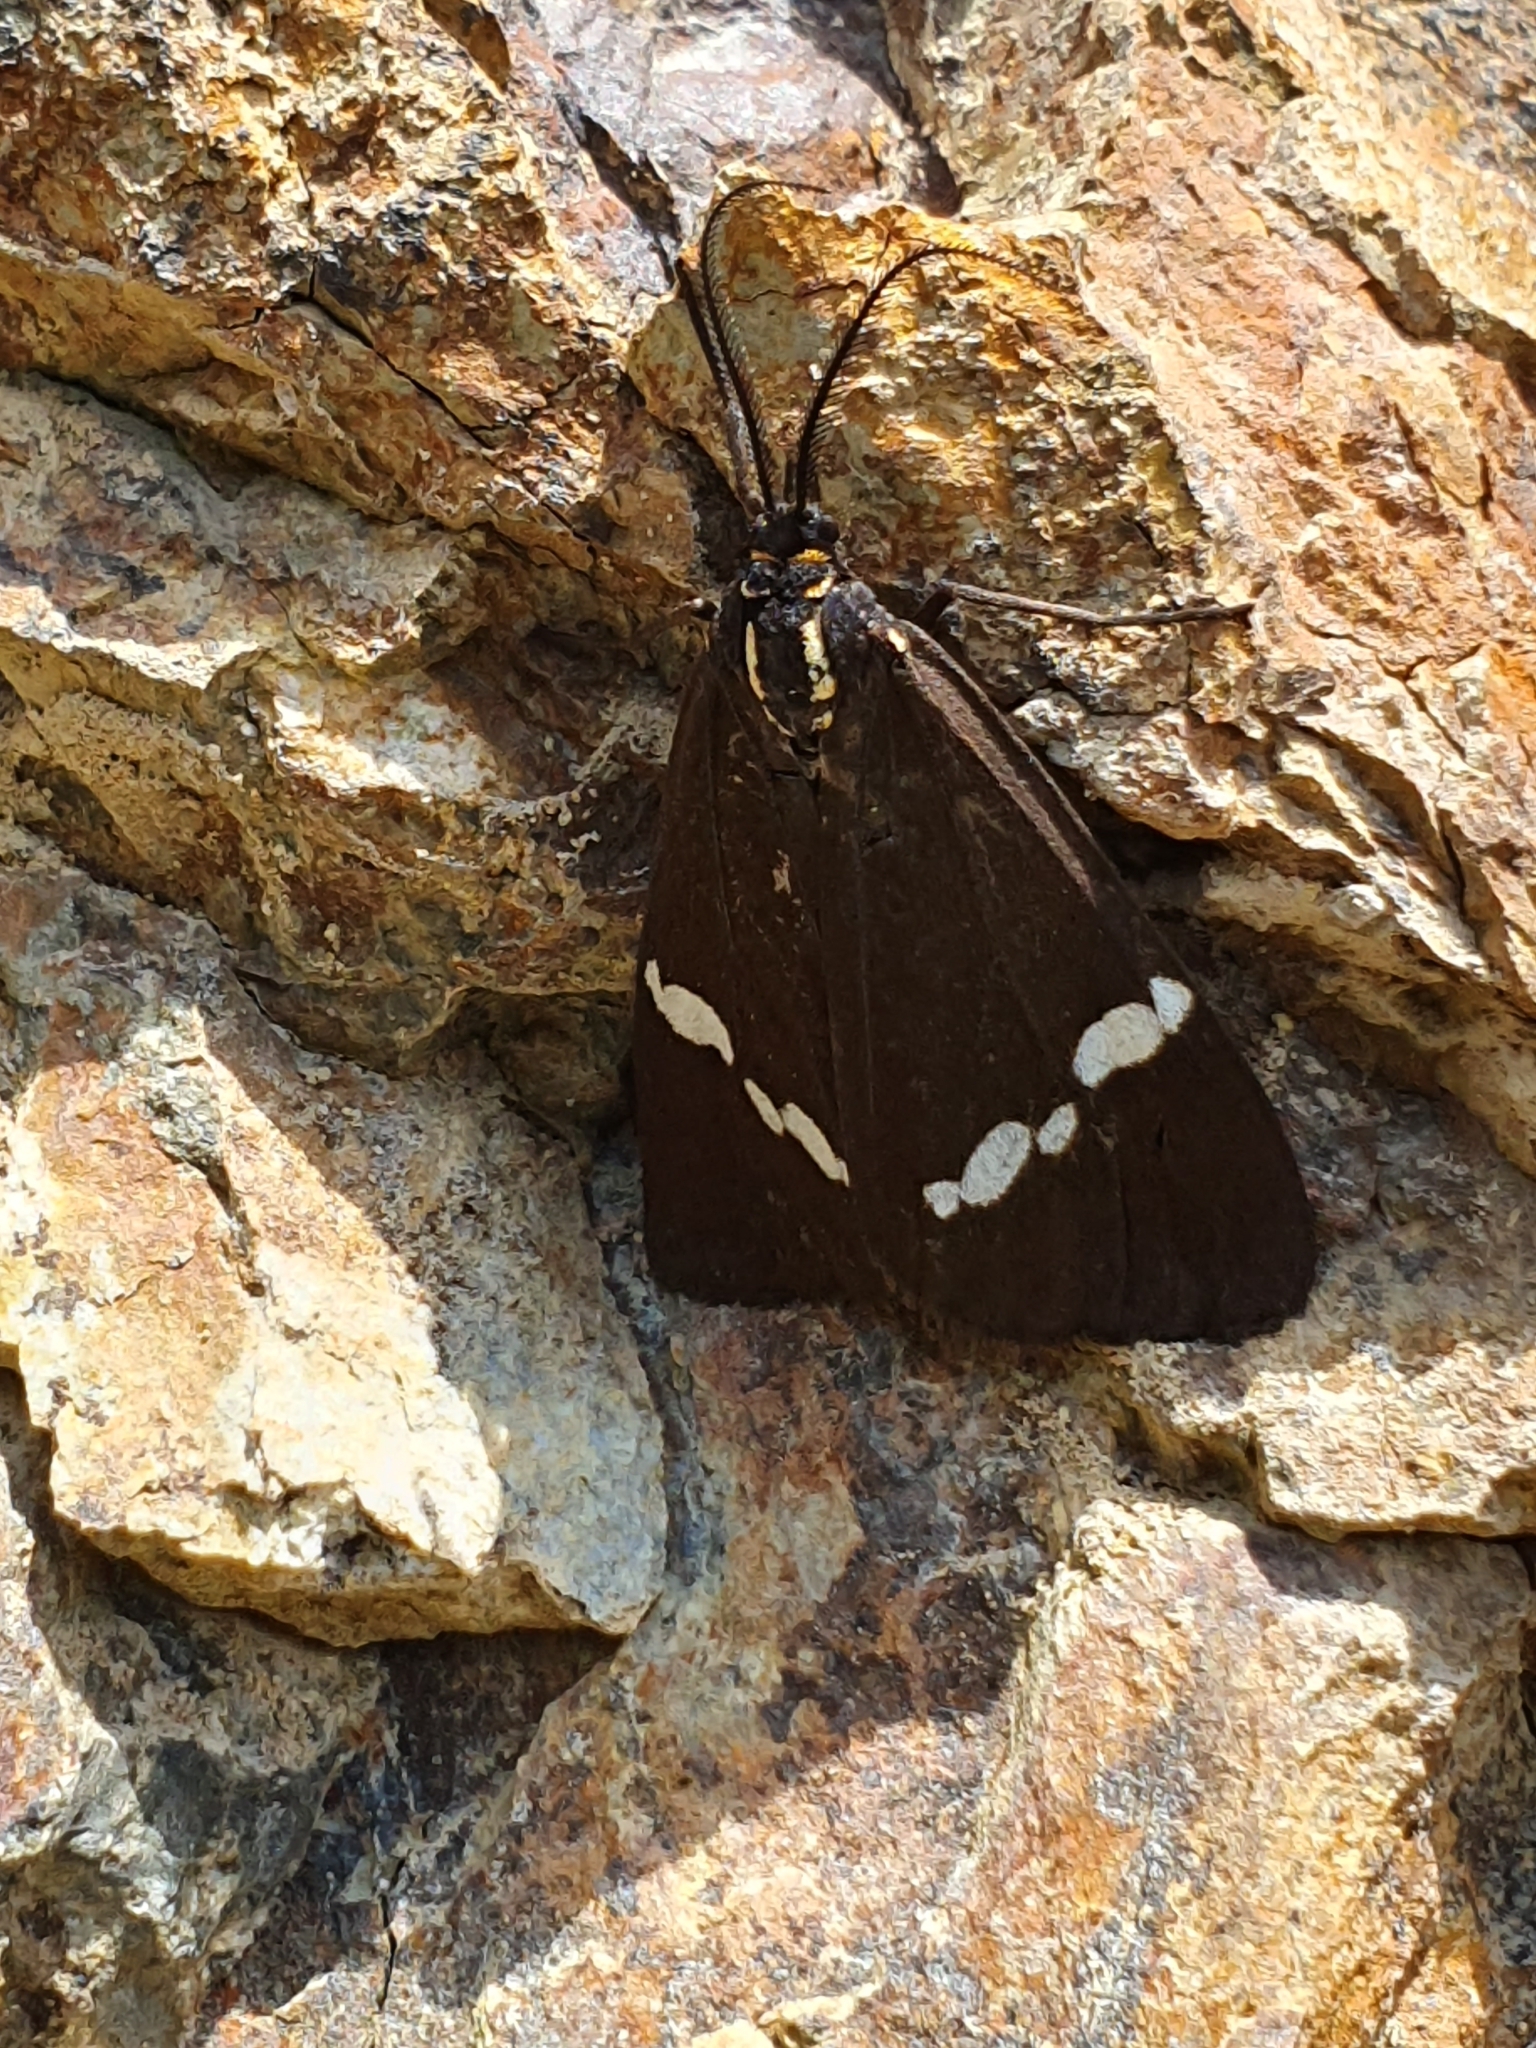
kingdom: Animalia
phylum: Arthropoda
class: Insecta
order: Lepidoptera
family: Erebidae
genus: Nyctemera
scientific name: Nyctemera annulatum
